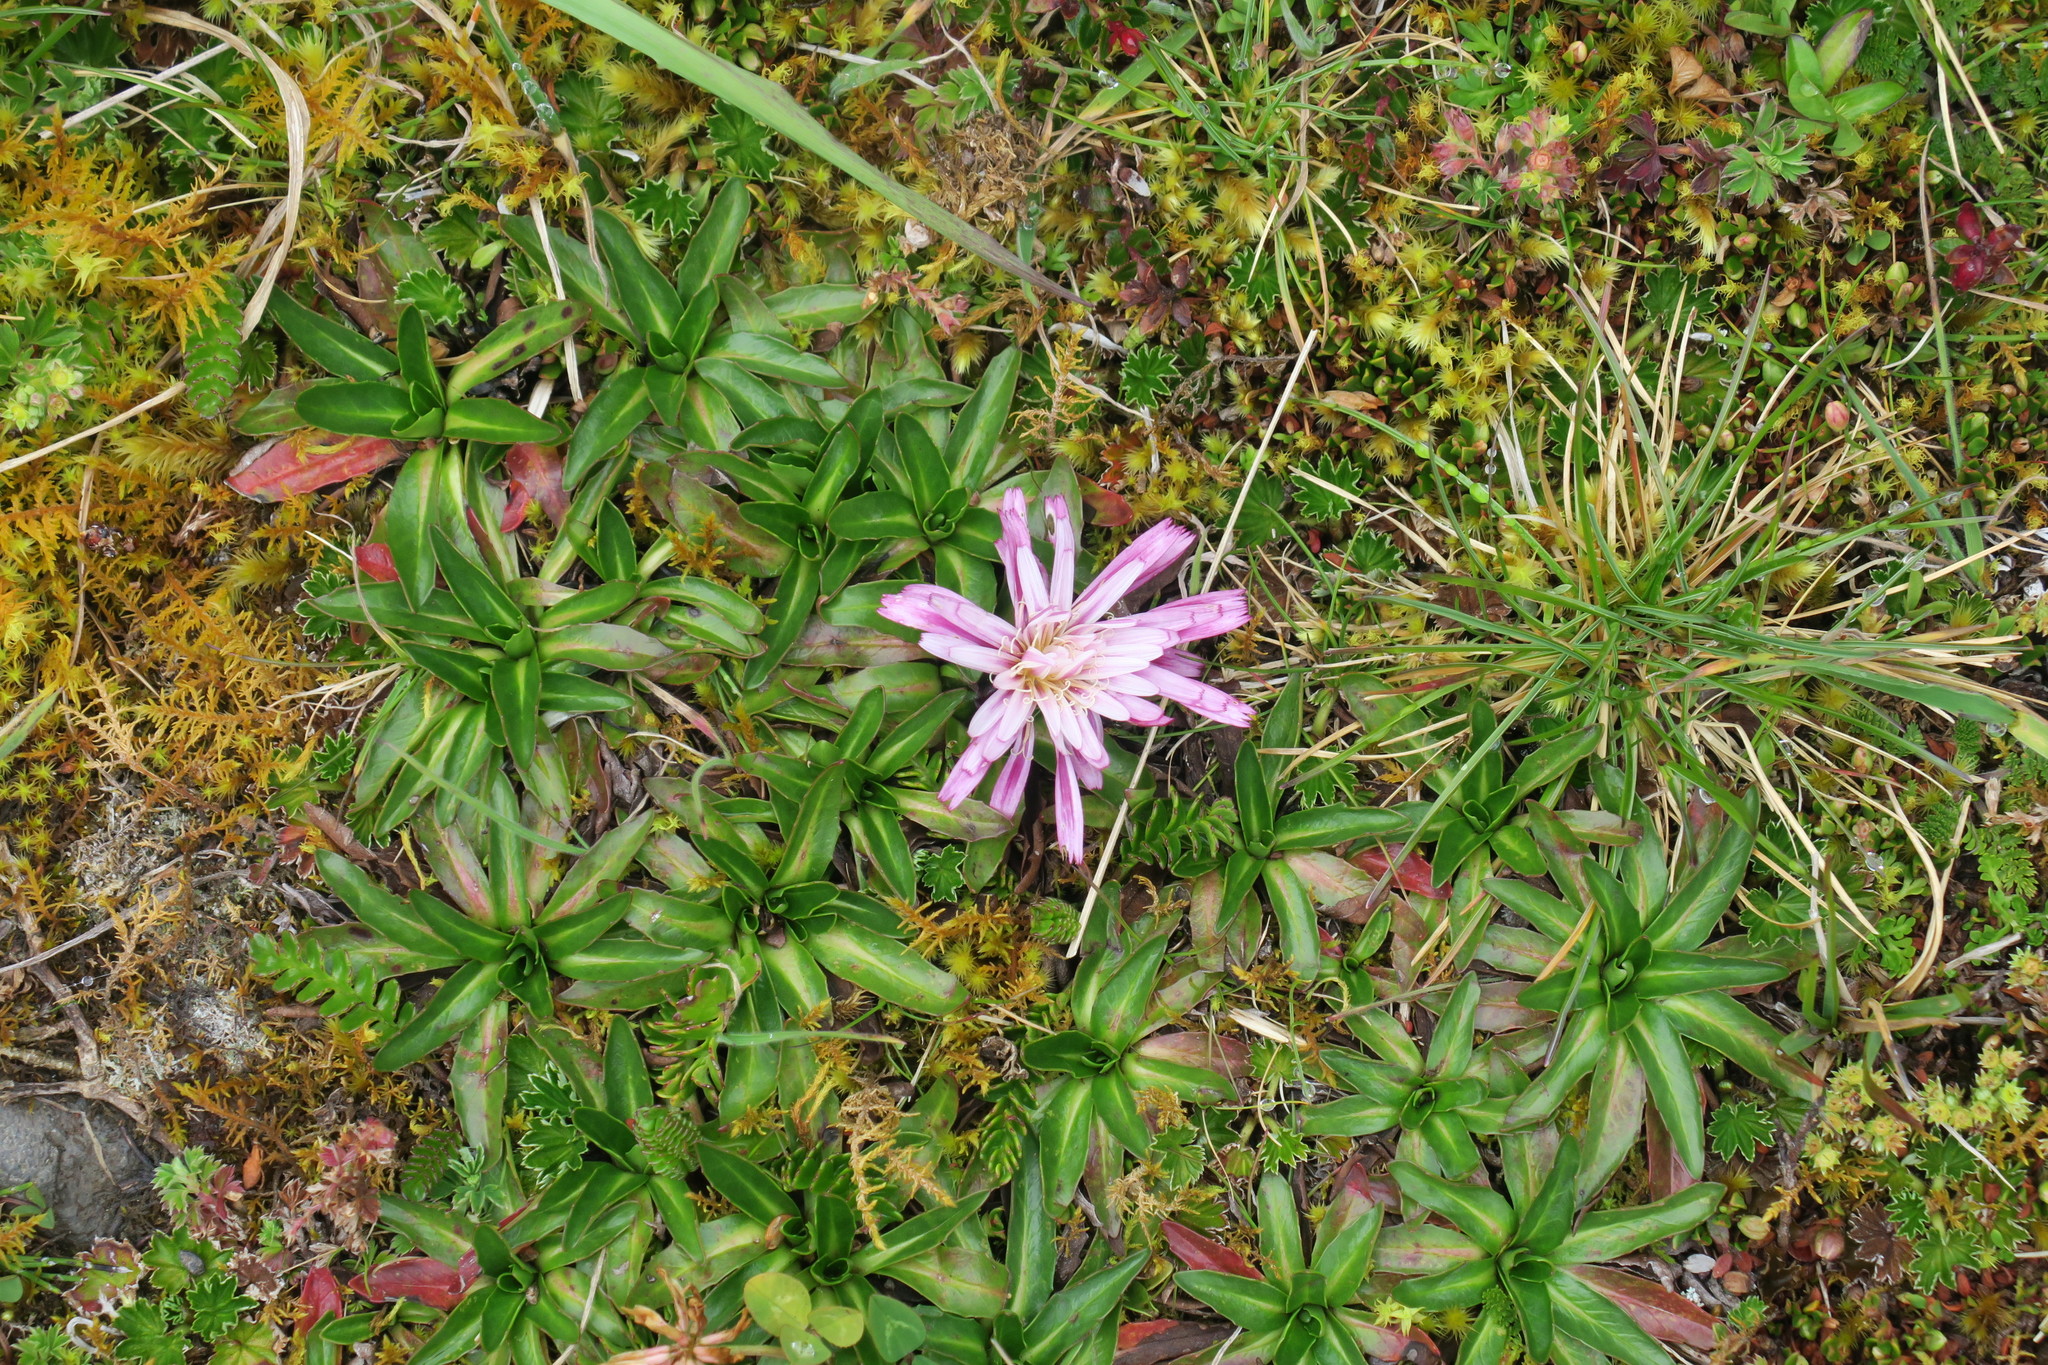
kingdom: Plantae
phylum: Tracheophyta
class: Magnoliopsida
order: Asterales
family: Asteraceae
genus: Hypochaeris
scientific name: Hypochaeris sessiliflora
